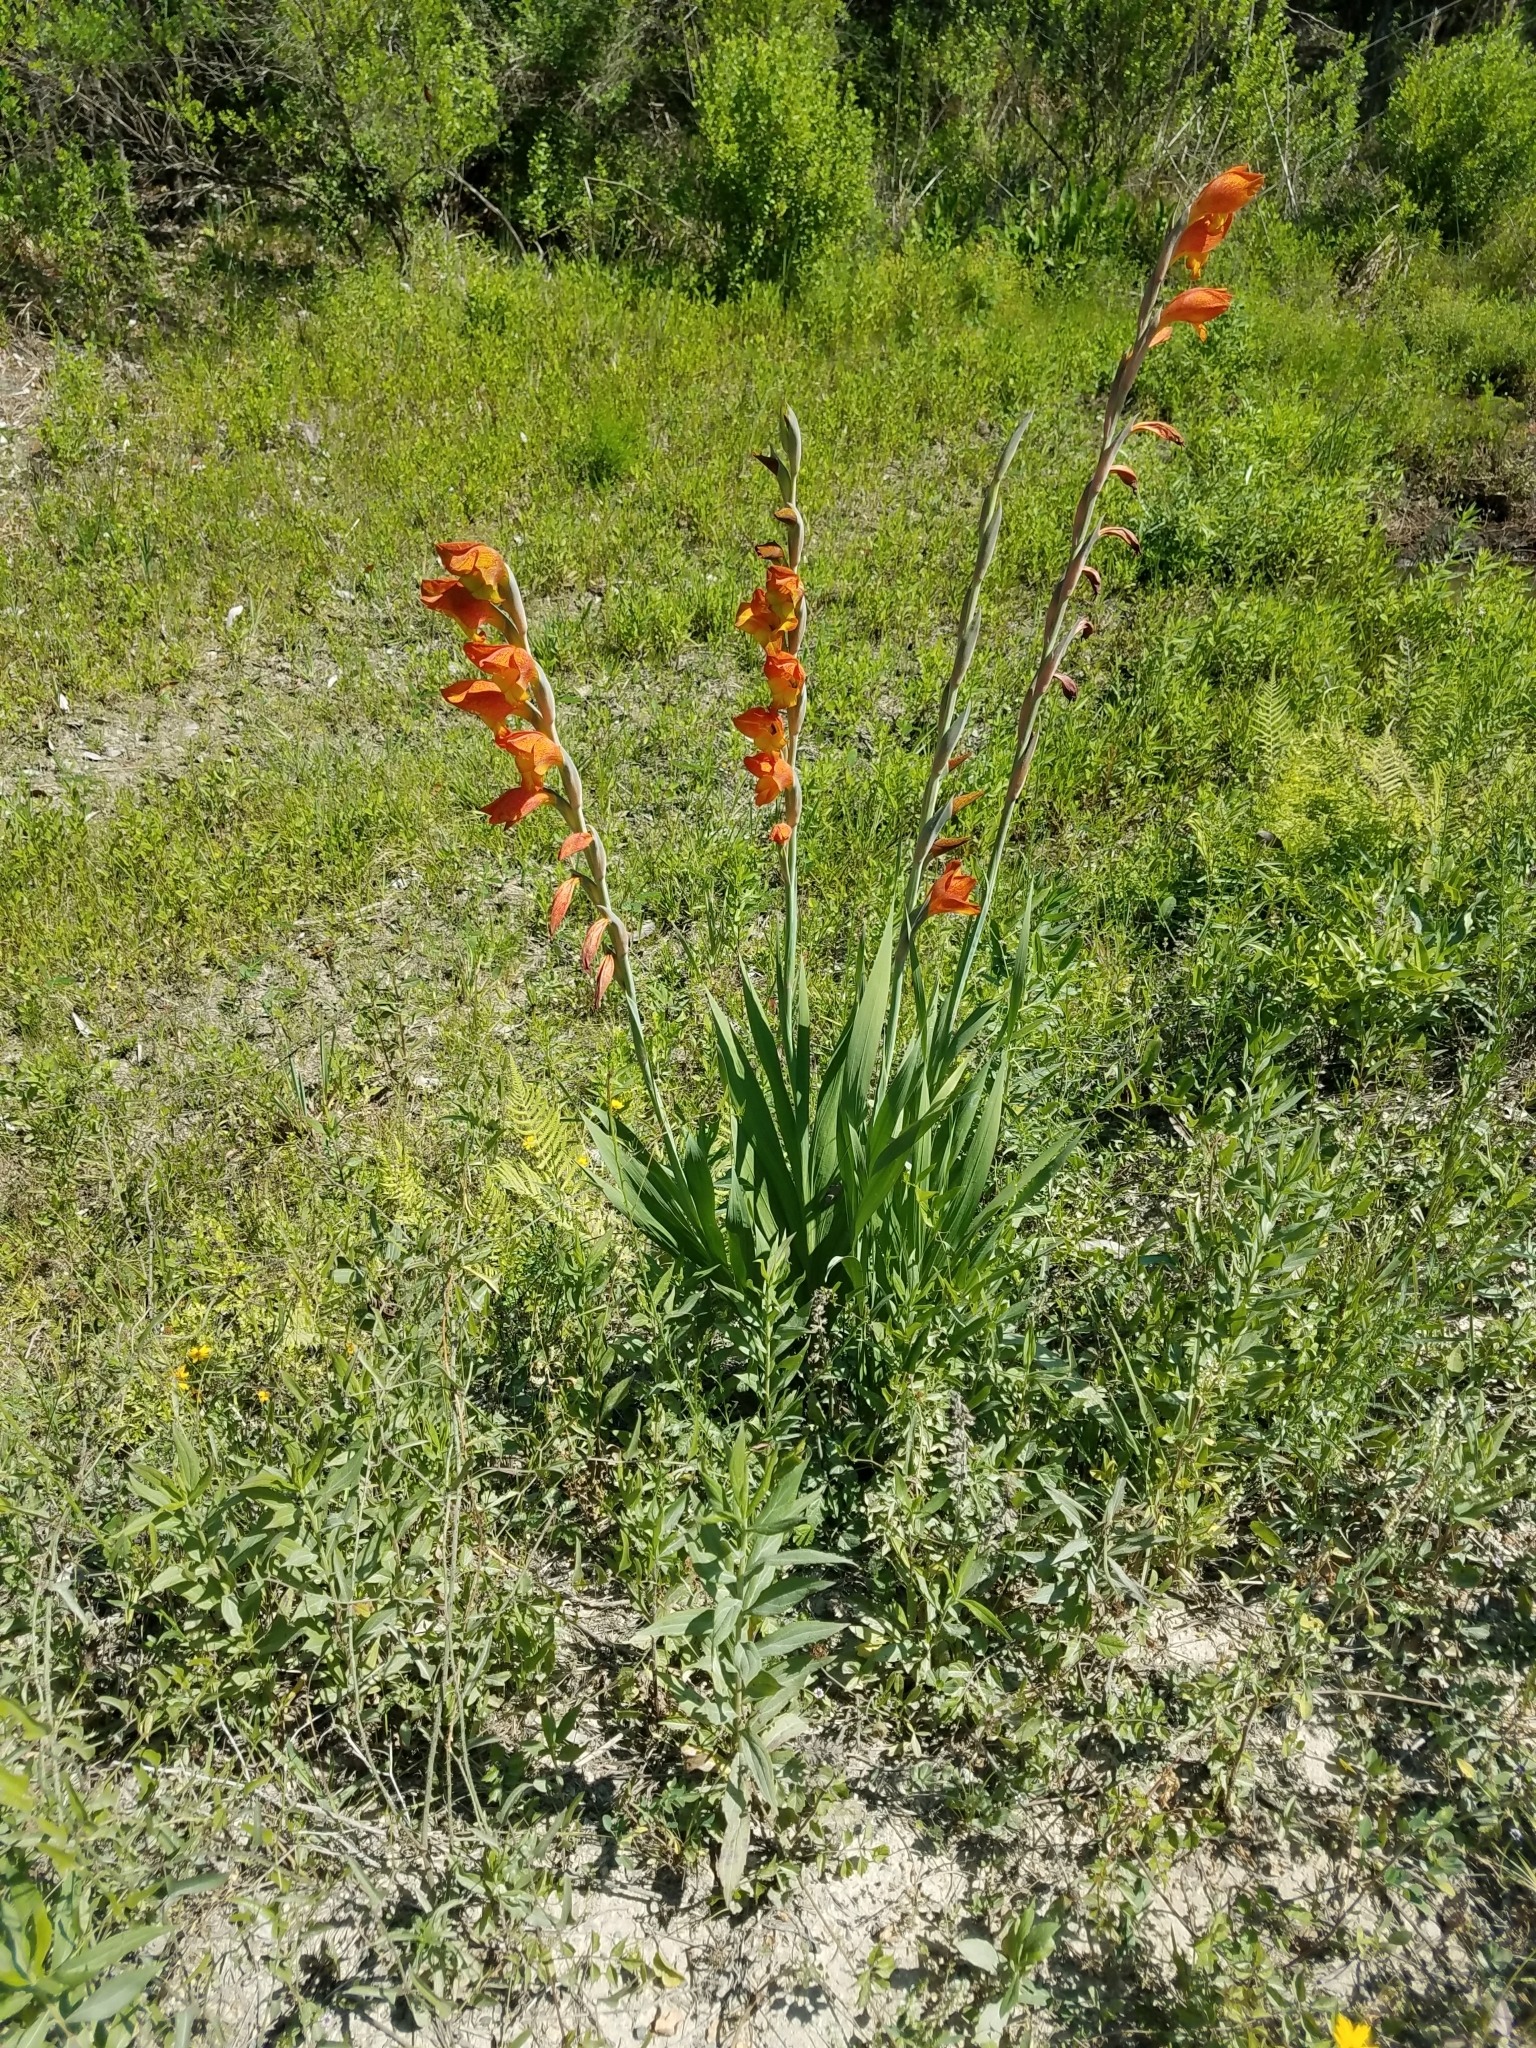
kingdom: Plantae
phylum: Tracheophyta
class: Liliopsida
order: Asparagales
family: Iridaceae
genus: Gladiolus
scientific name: Gladiolus dalenii
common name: Cornflag
